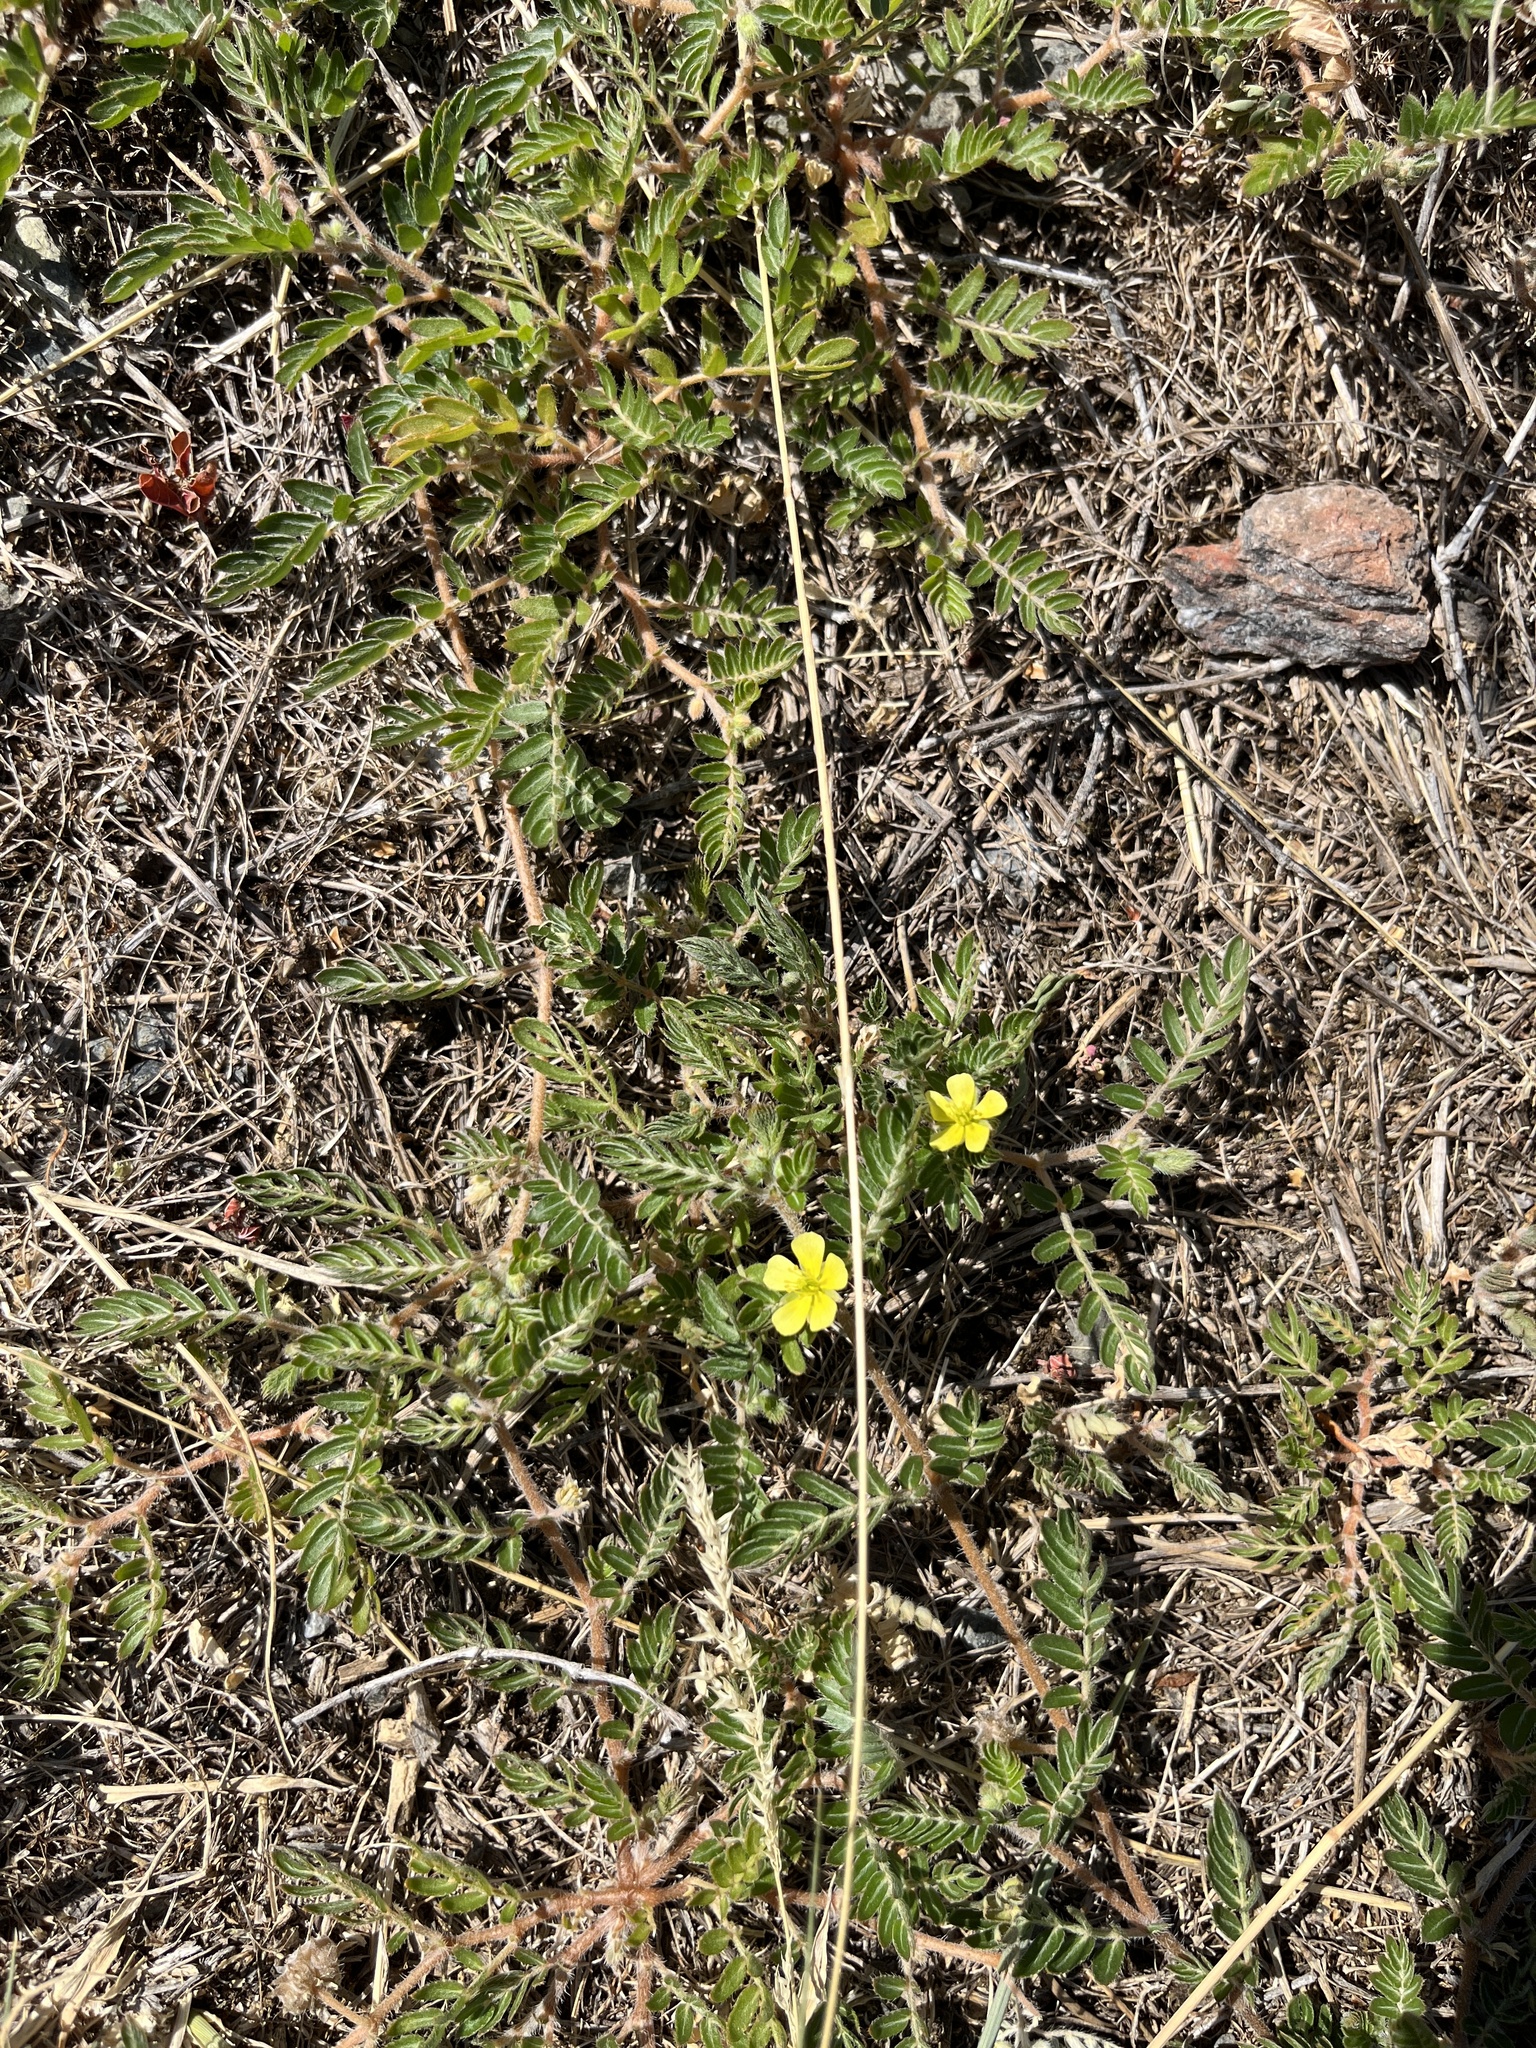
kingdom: Plantae
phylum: Tracheophyta
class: Magnoliopsida
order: Zygophyllales
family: Zygophyllaceae
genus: Tribulus
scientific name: Tribulus terrestris
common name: Puncturevine
